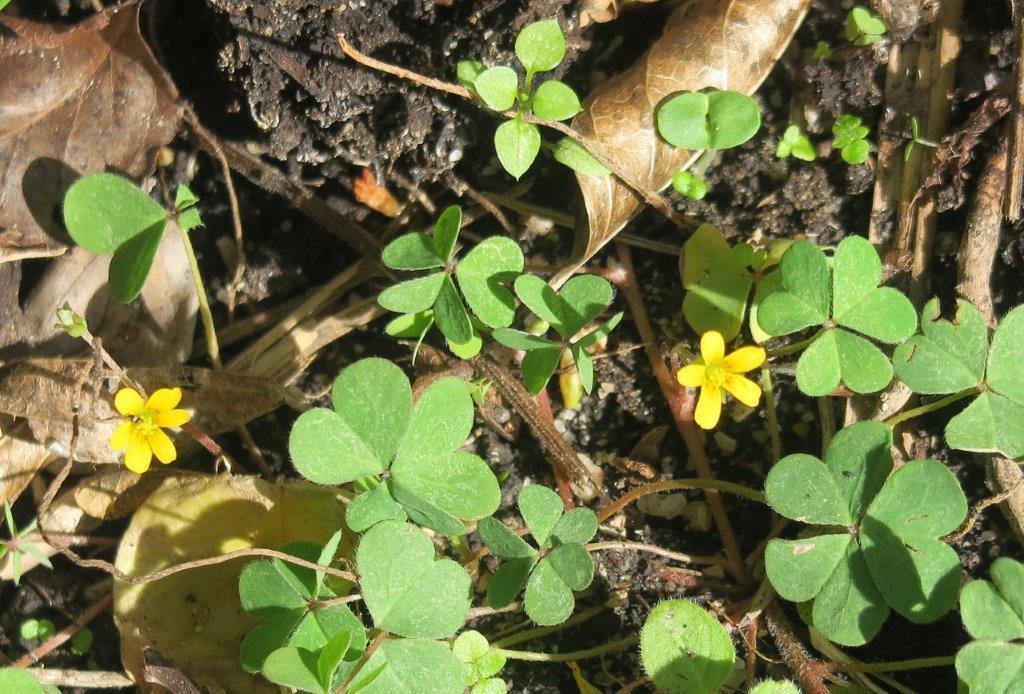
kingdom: Plantae
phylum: Tracheophyta
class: Magnoliopsida
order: Oxalidales
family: Oxalidaceae
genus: Oxalis
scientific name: Oxalis corniculata
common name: Procumbent yellow-sorrel
